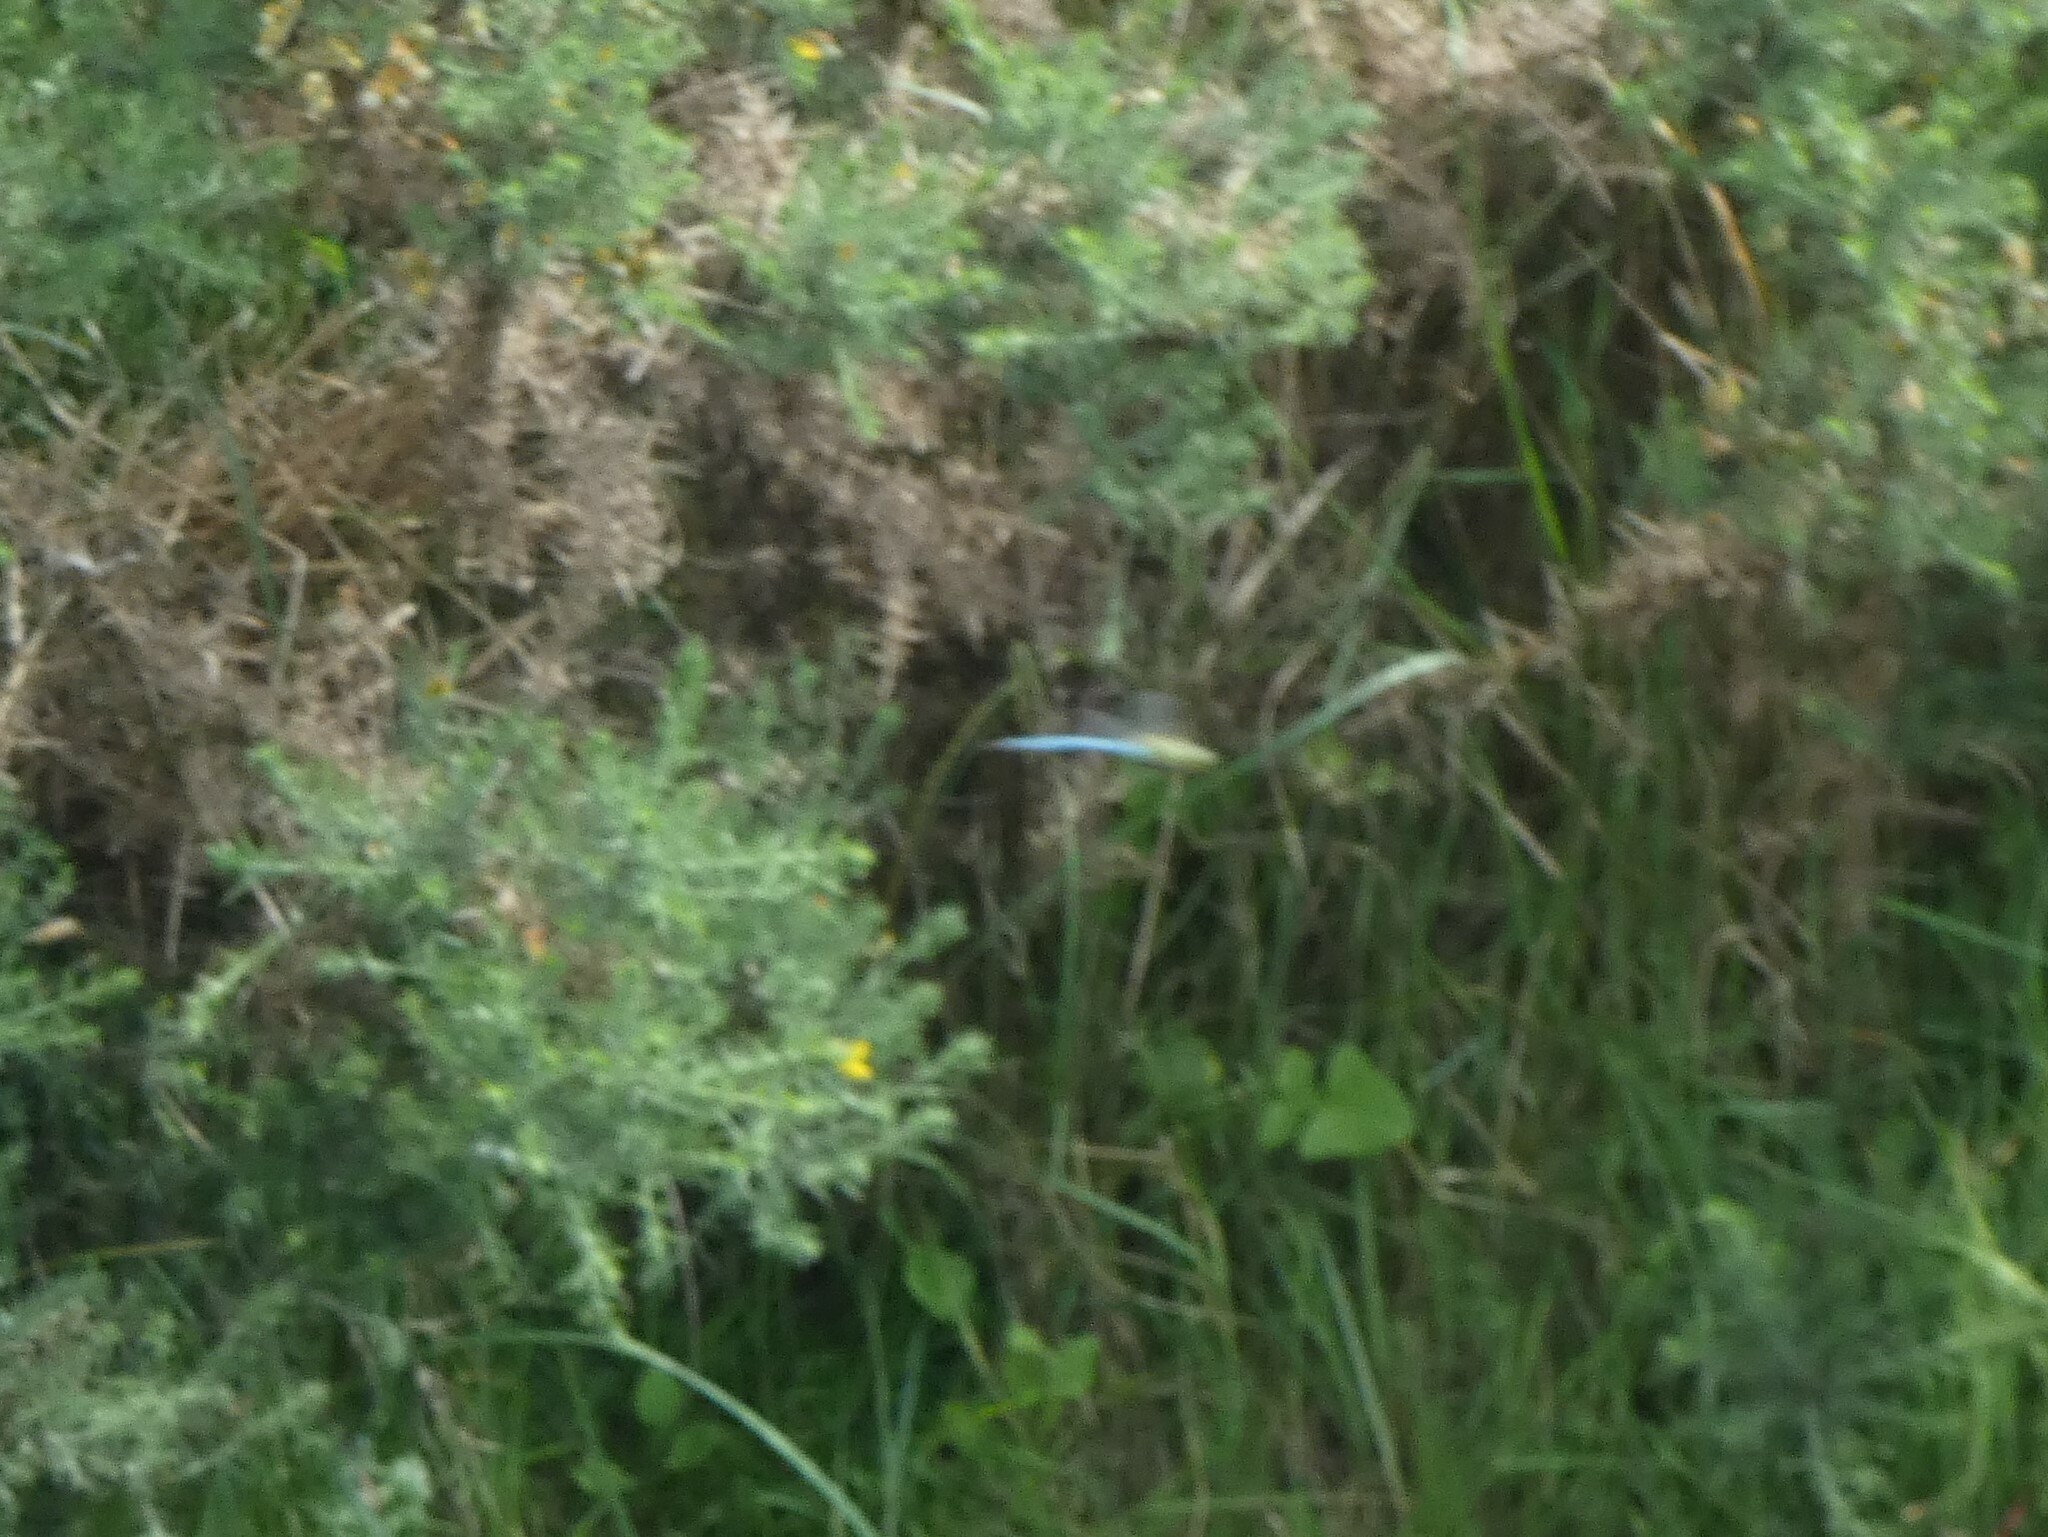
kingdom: Animalia
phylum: Arthropoda
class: Insecta
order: Odonata
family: Aeshnidae
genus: Anax
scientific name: Anax imperator
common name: Emperor dragonfly
